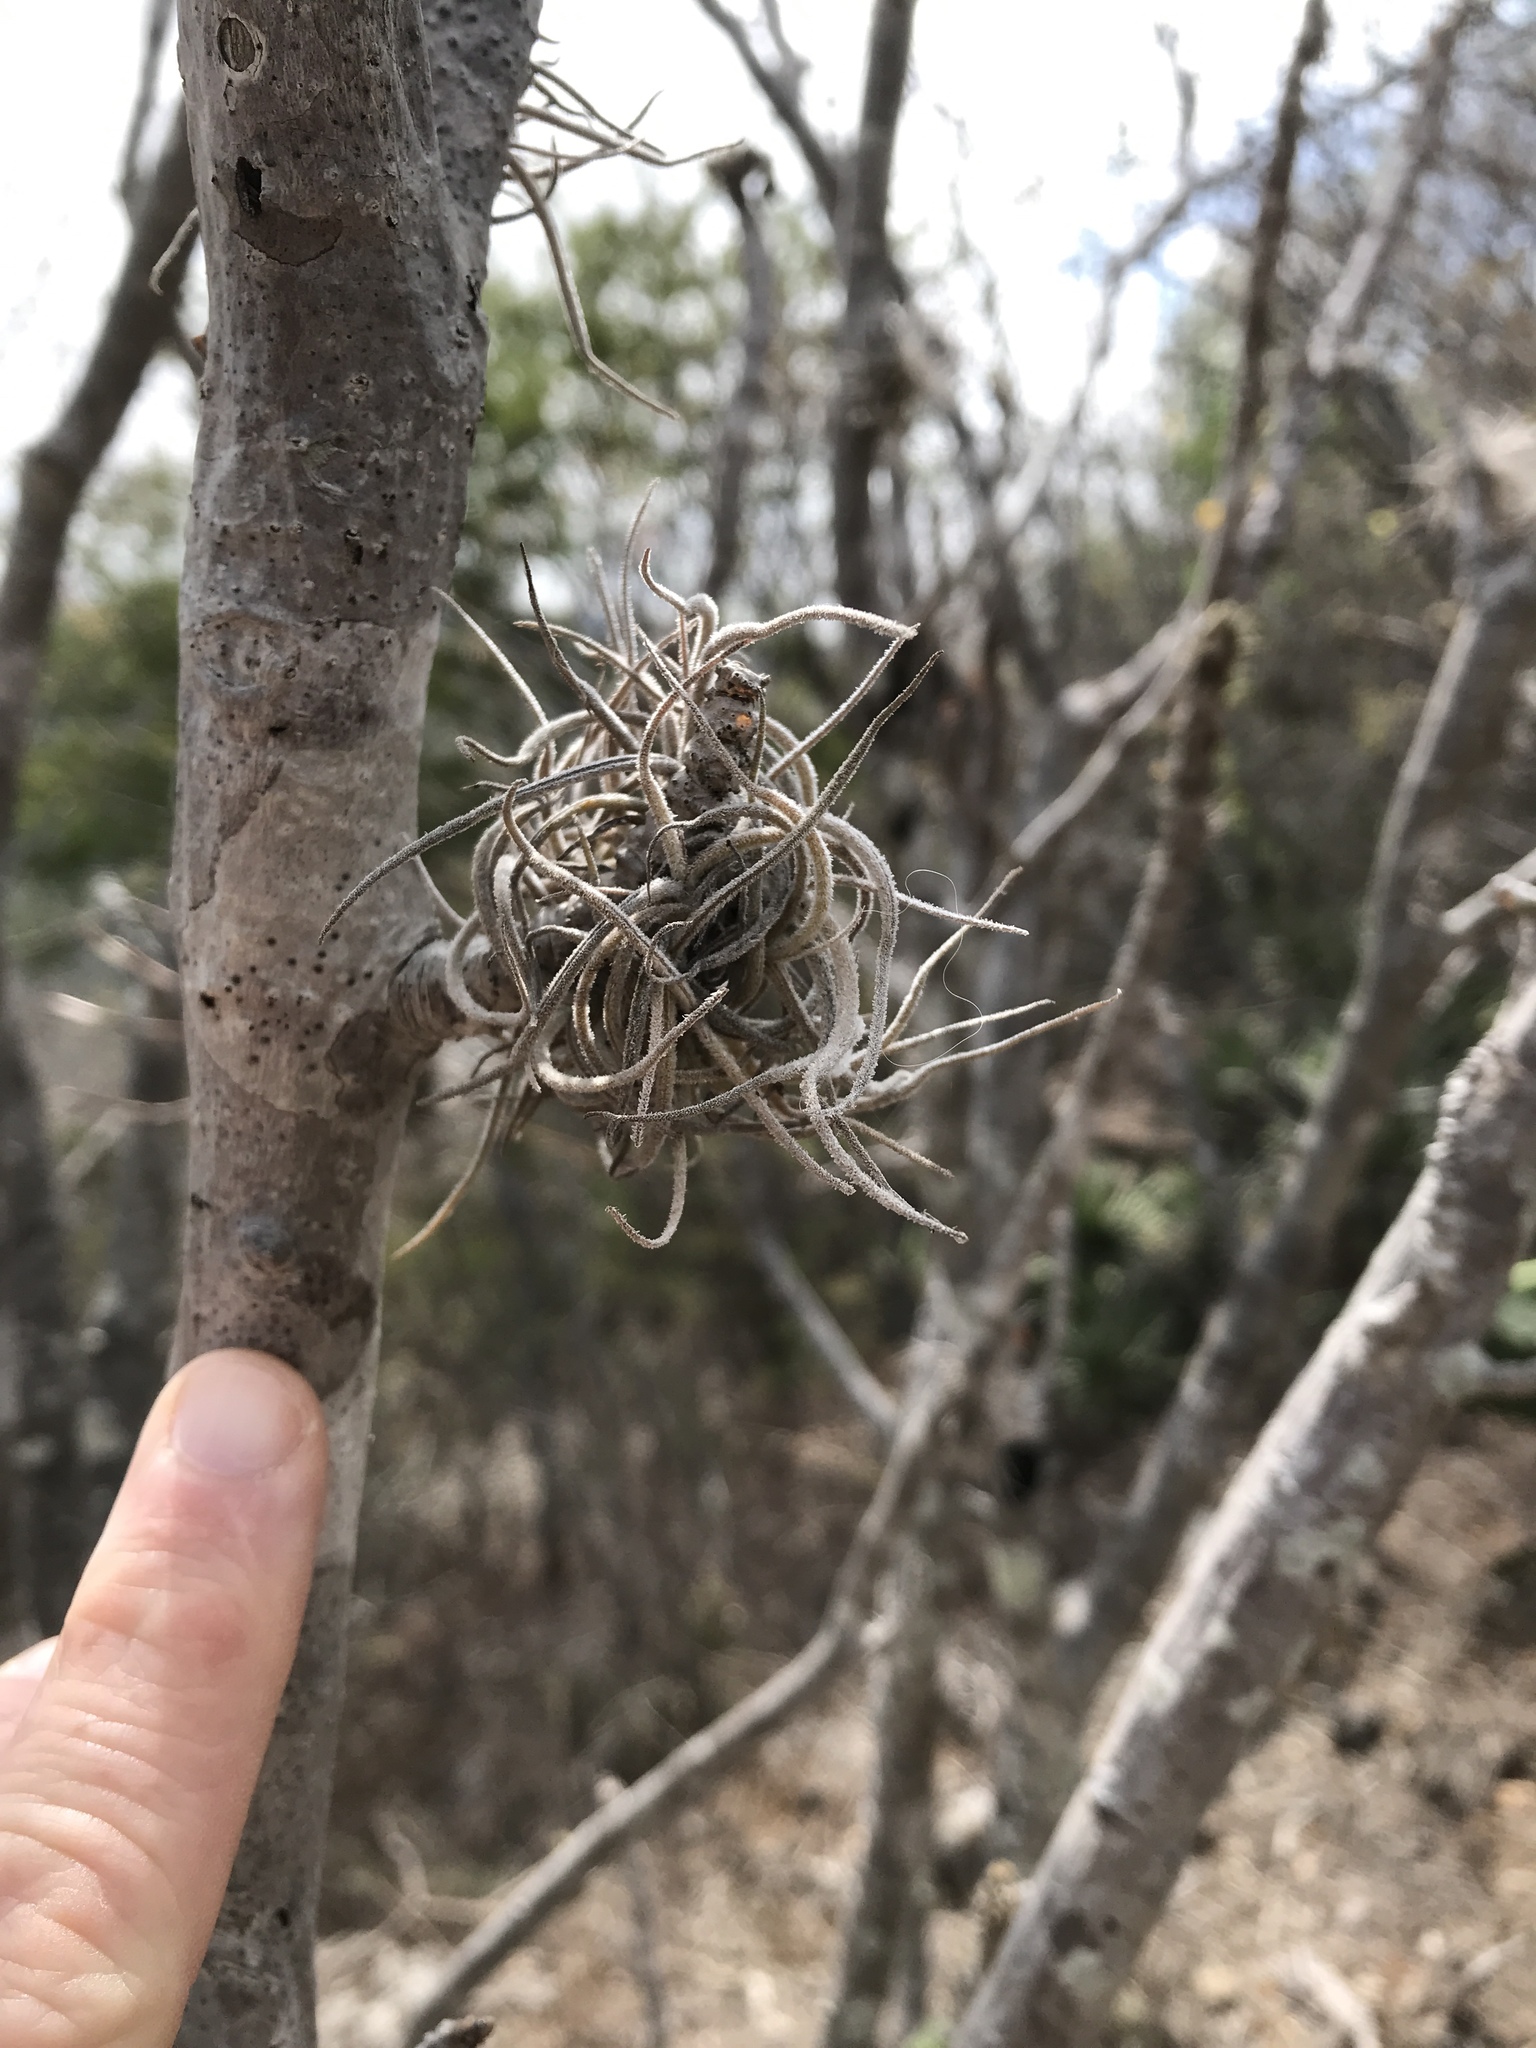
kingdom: Plantae
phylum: Tracheophyta
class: Liliopsida
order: Poales
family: Bromeliaceae
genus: Tillandsia
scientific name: Tillandsia recurvata
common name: Small ballmoss
